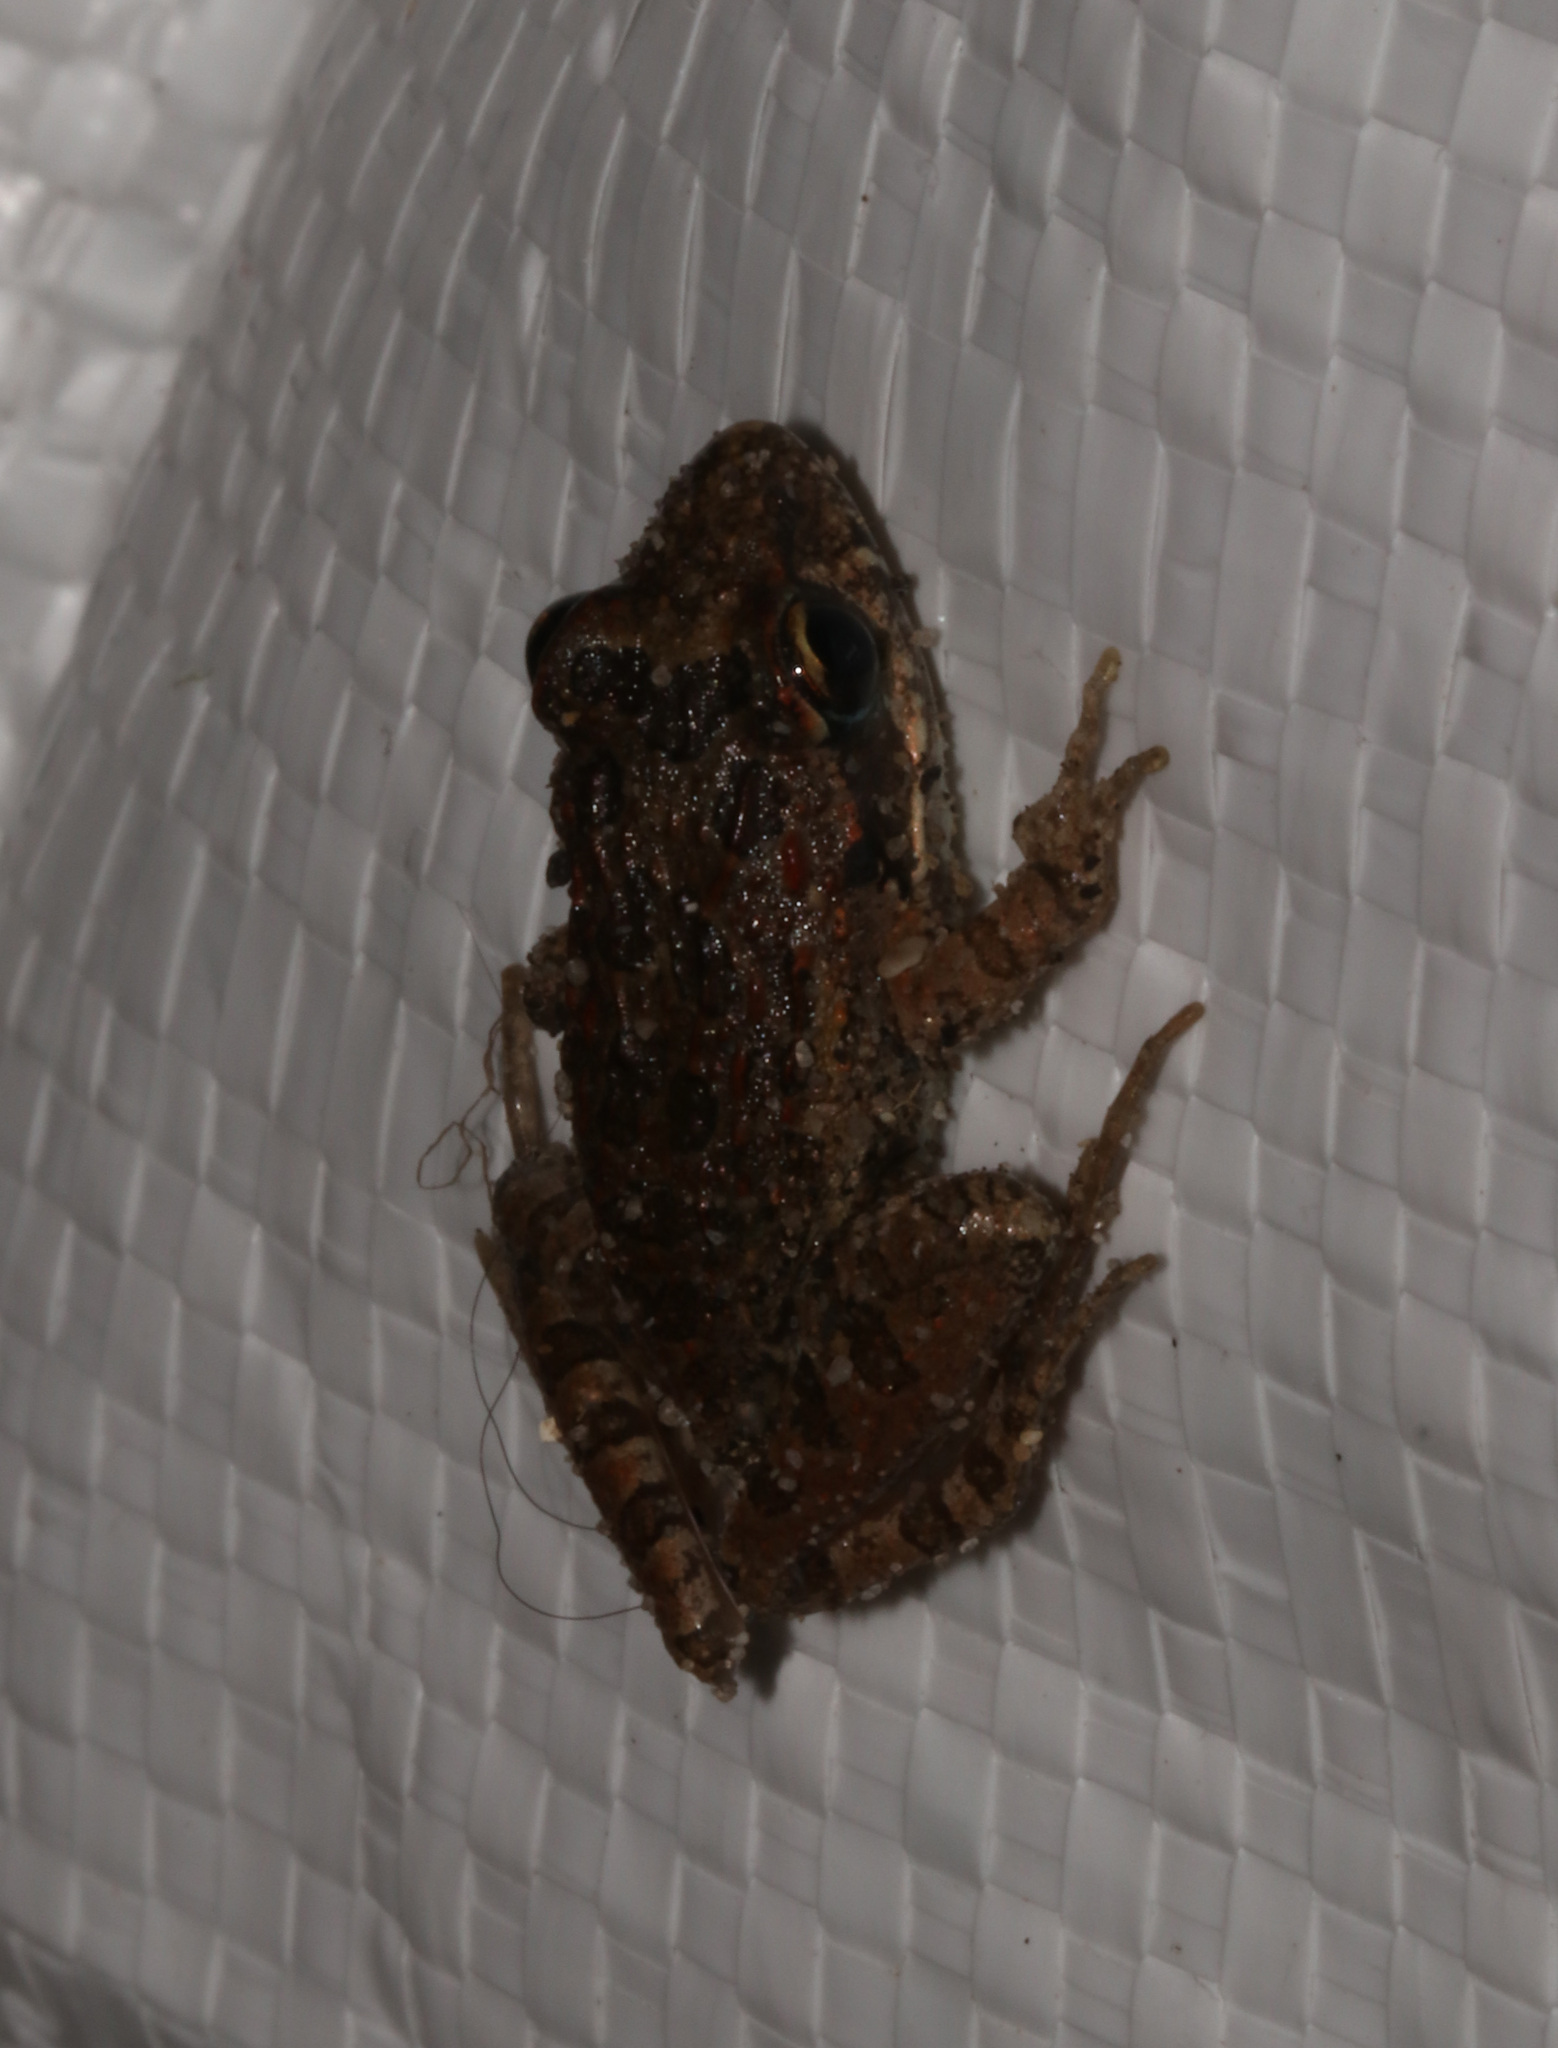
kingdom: Animalia
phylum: Chordata
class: Amphibia
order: Anura
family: Pyxicephalidae
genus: Strongylopus
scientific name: Strongylopus grayii
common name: Gray's stream frog
